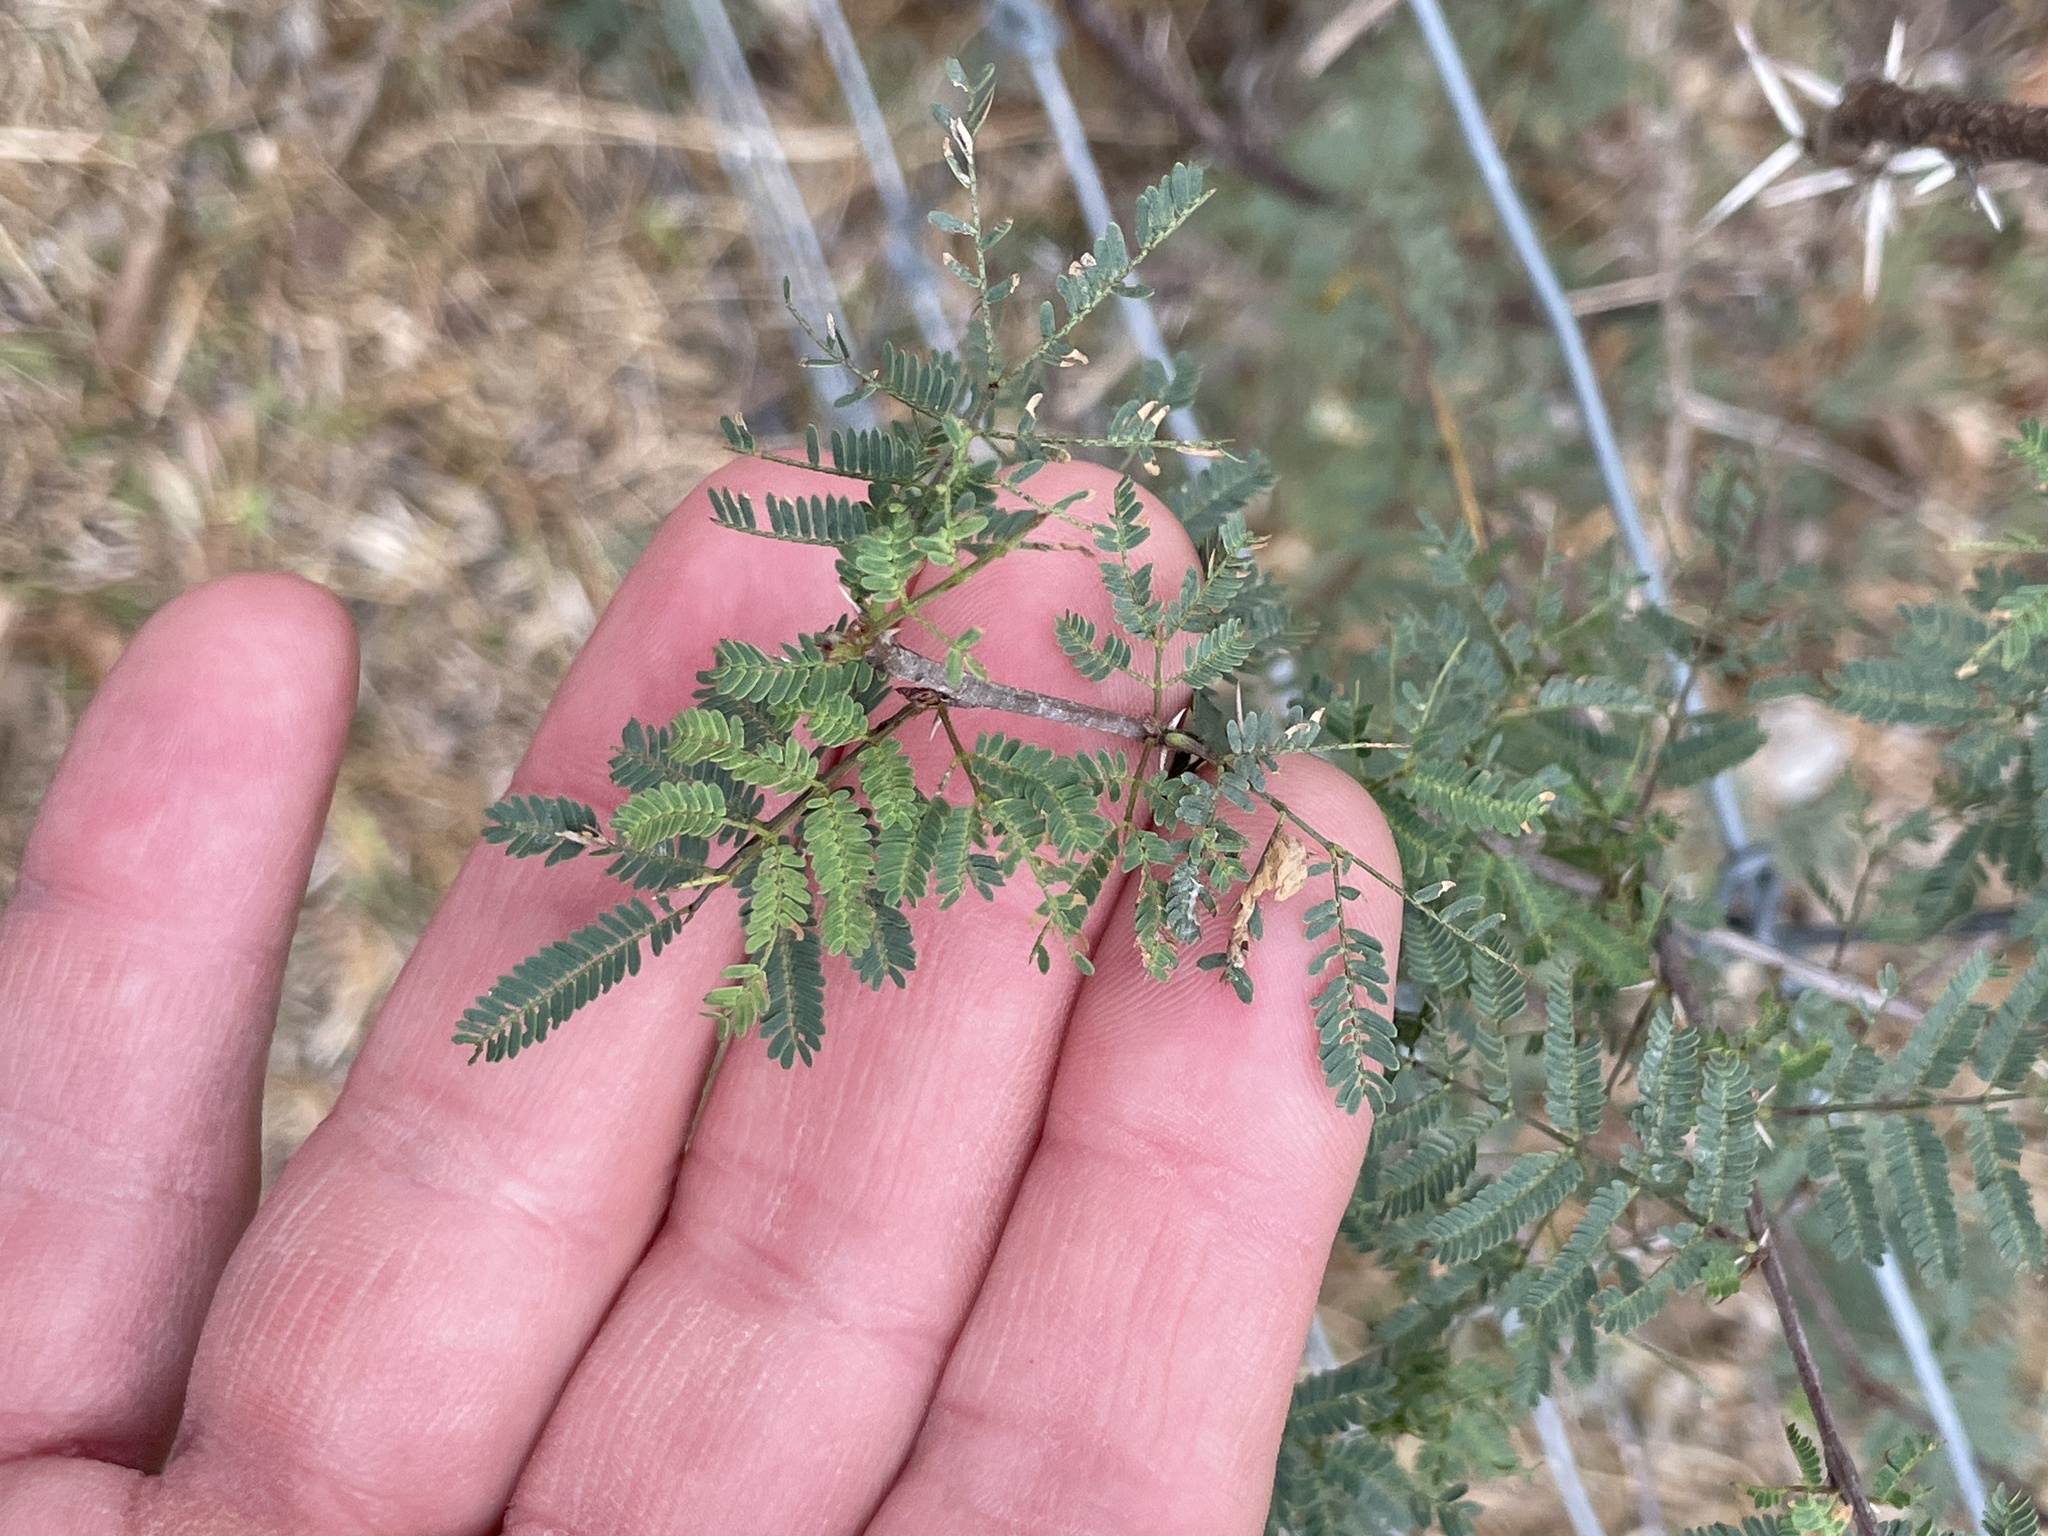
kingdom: Plantae
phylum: Tracheophyta
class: Magnoliopsida
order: Fabales
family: Fabaceae
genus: Vachellia
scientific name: Vachellia farnesiana
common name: Sweet acacia
